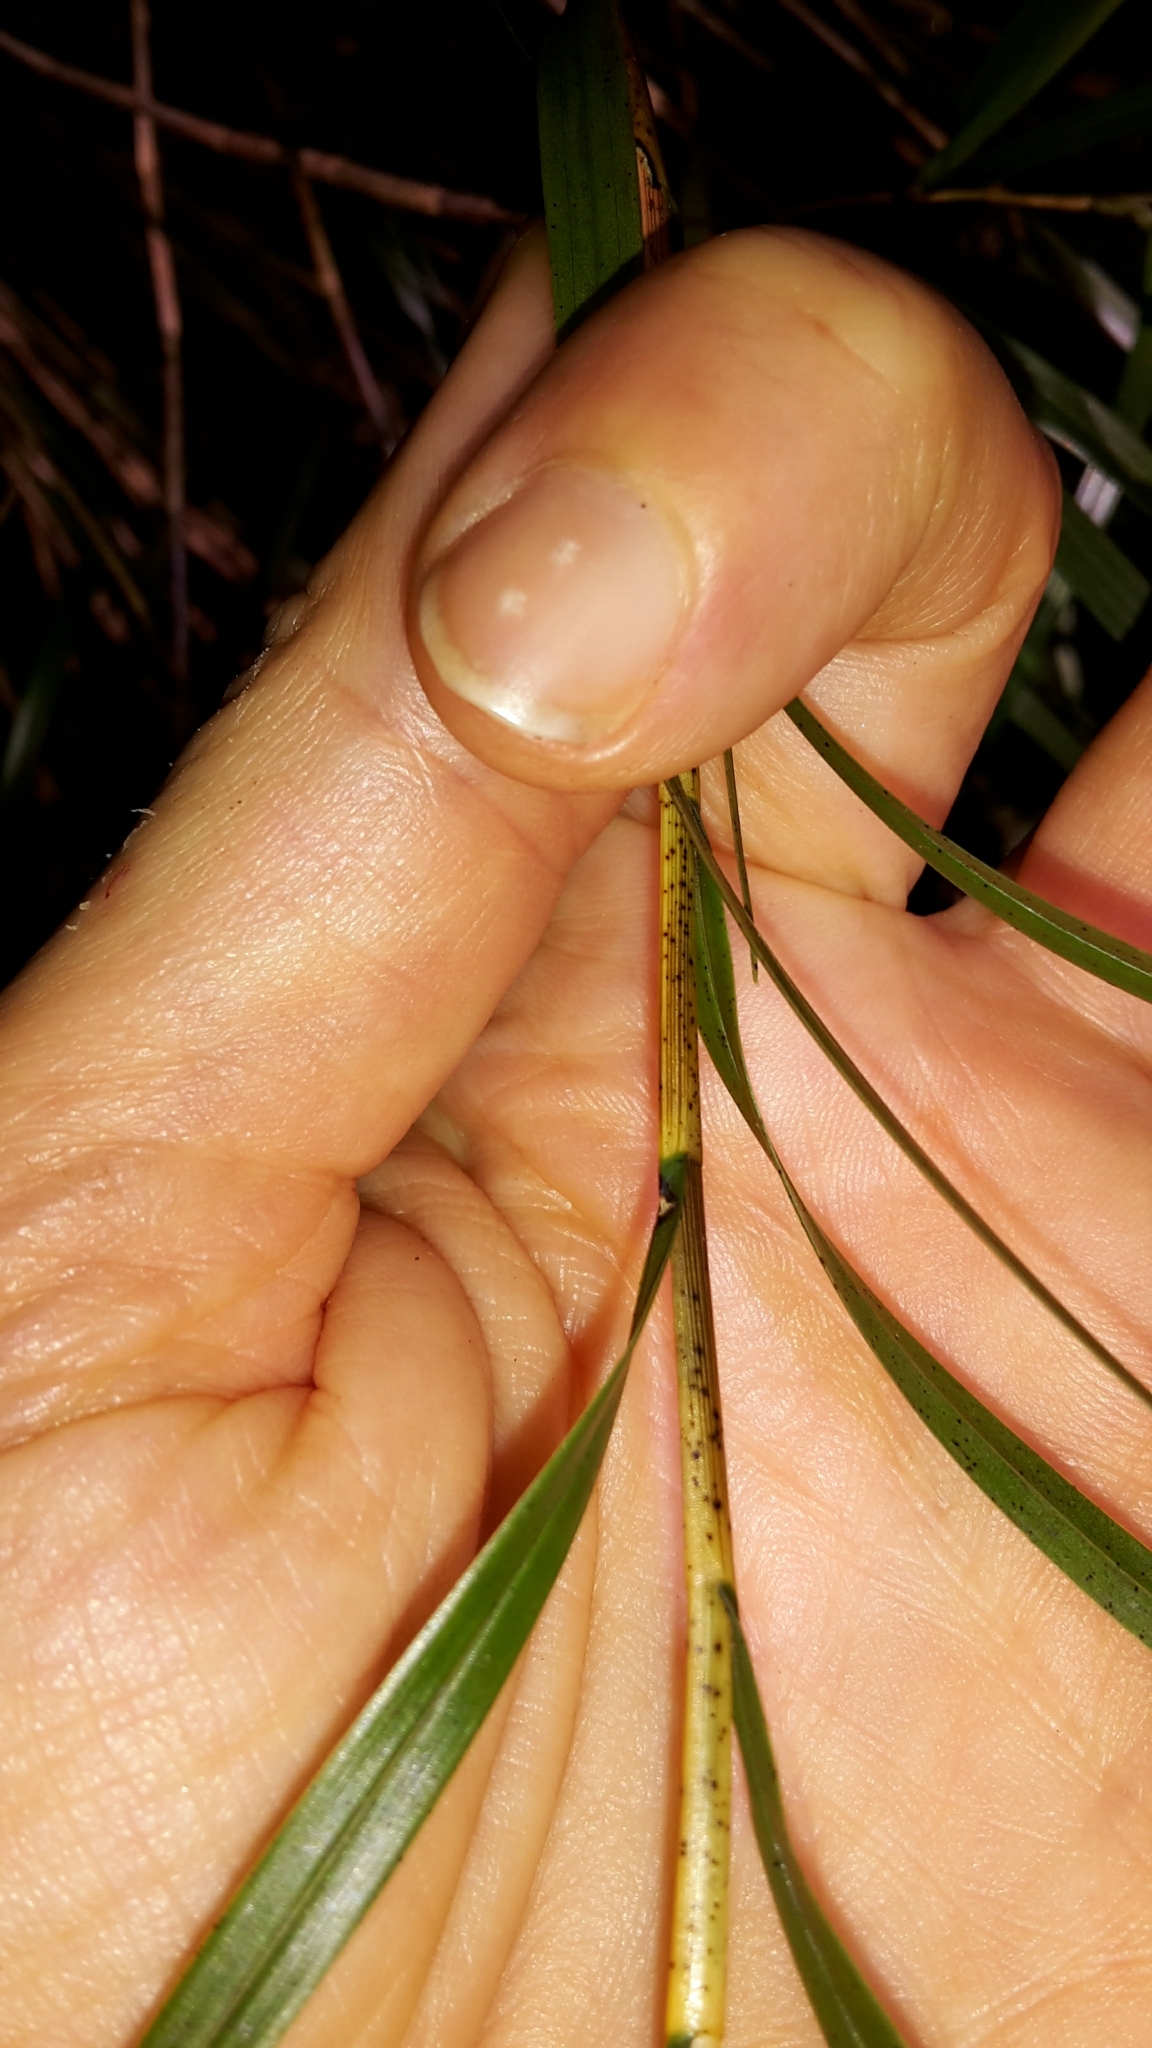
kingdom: Plantae
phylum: Tracheophyta
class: Liliopsida
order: Asparagales
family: Orchidaceae
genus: Earina
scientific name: Earina mucronata
